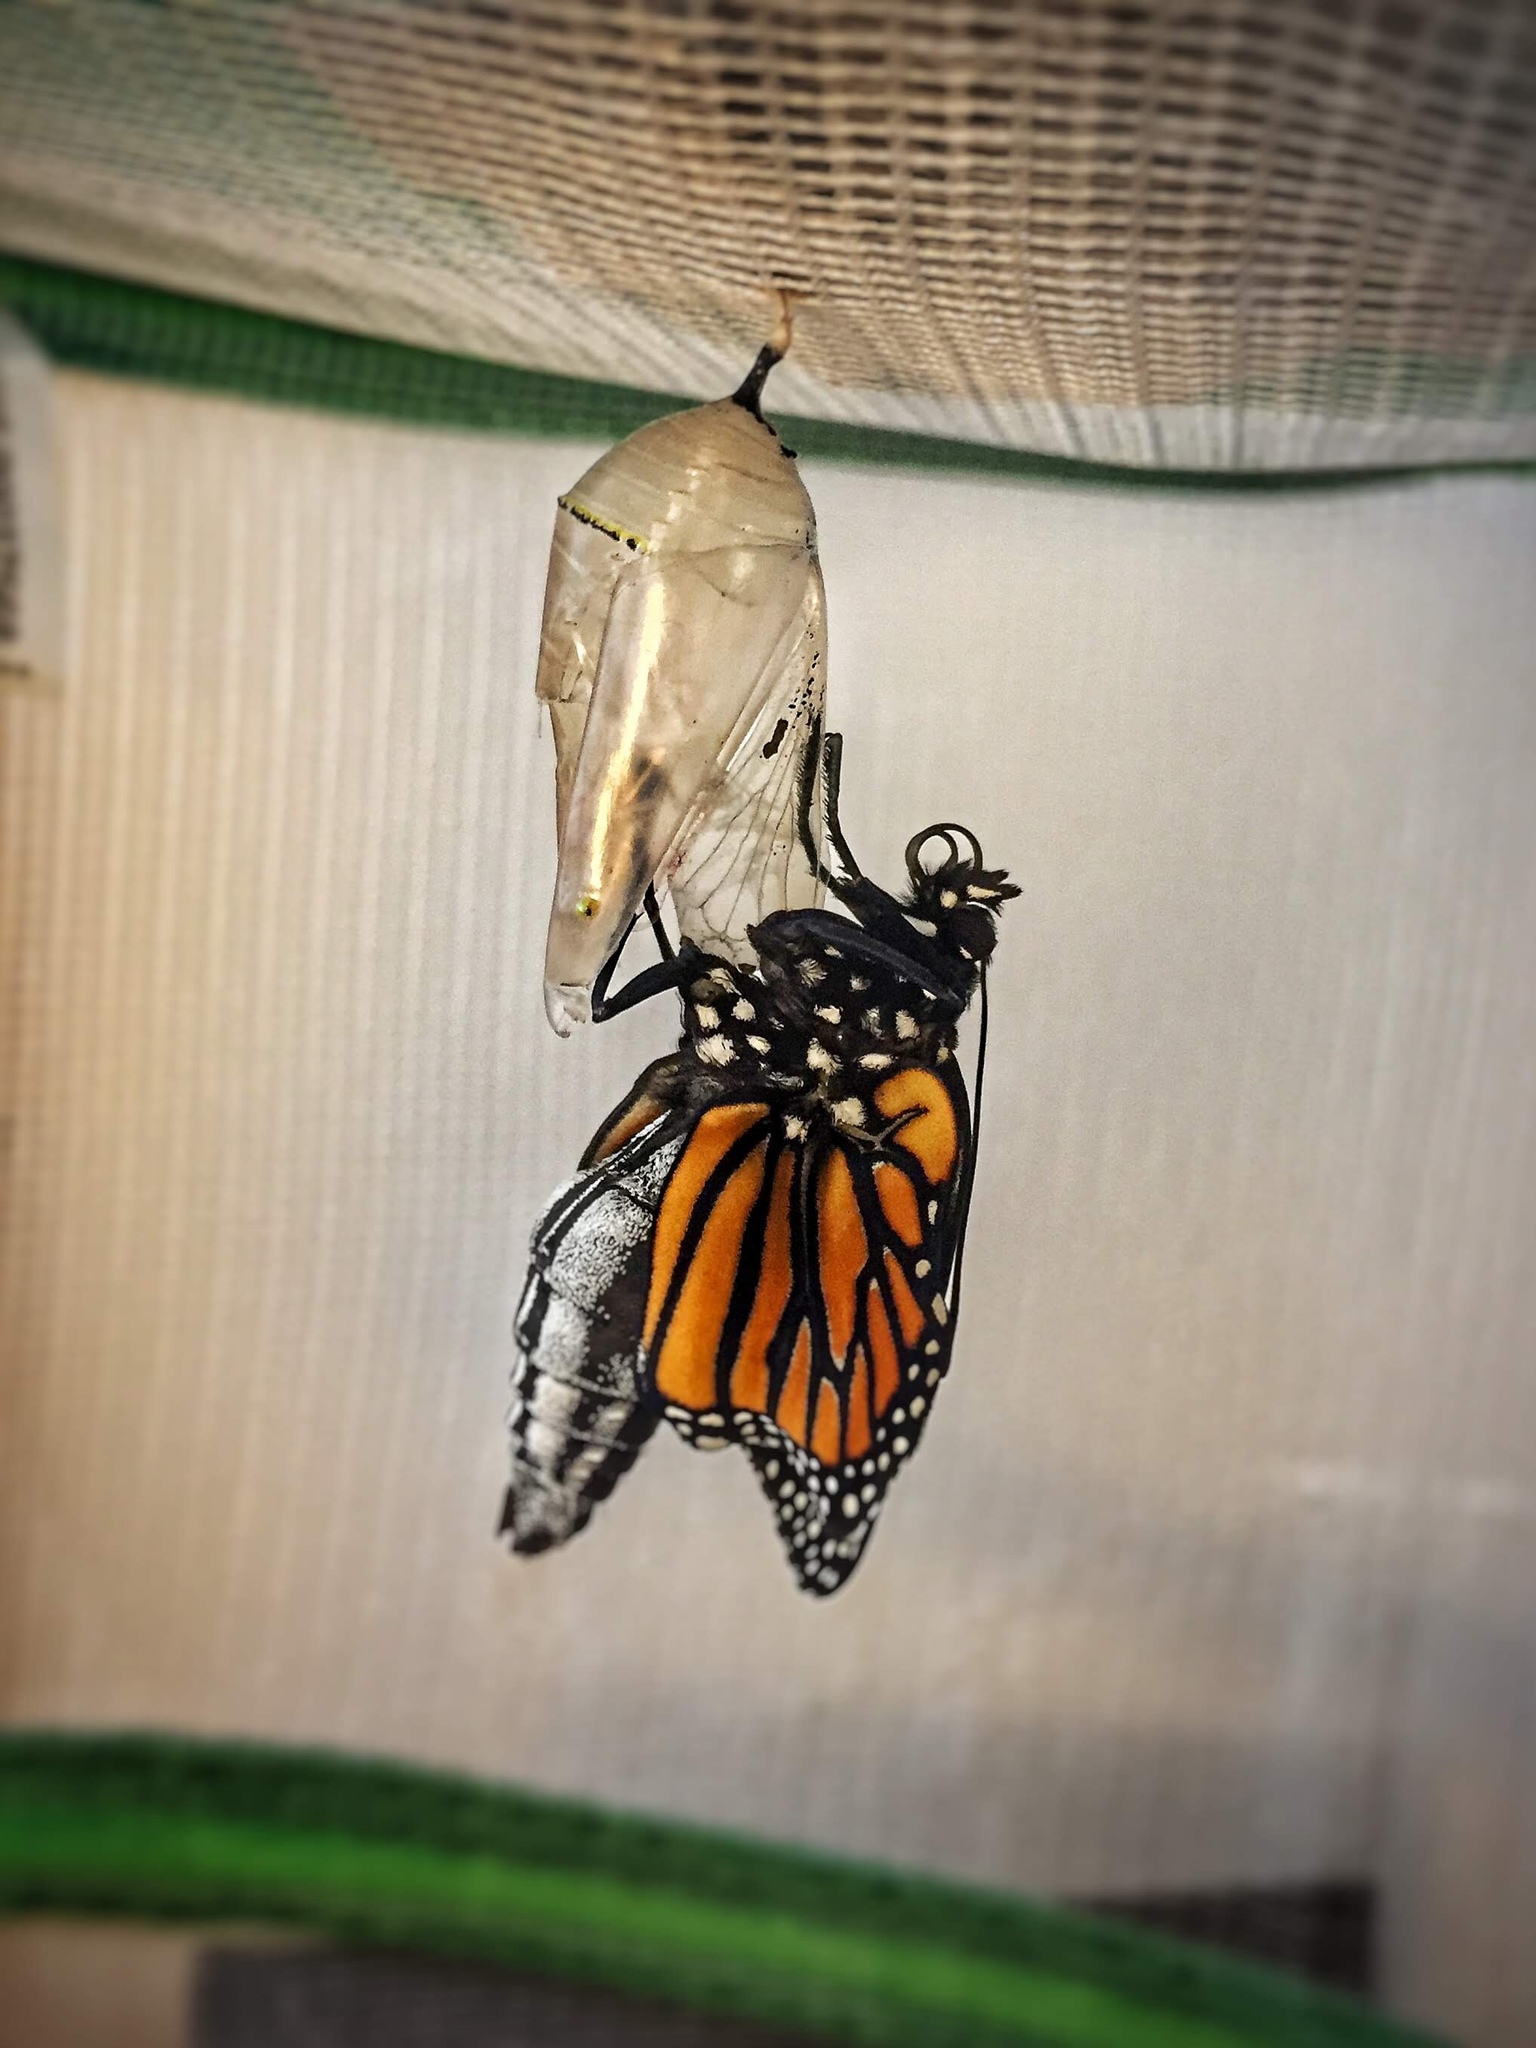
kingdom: Animalia
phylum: Arthropoda
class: Insecta
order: Lepidoptera
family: Nymphalidae
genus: Danaus
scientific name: Danaus plexippus
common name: Monarch
